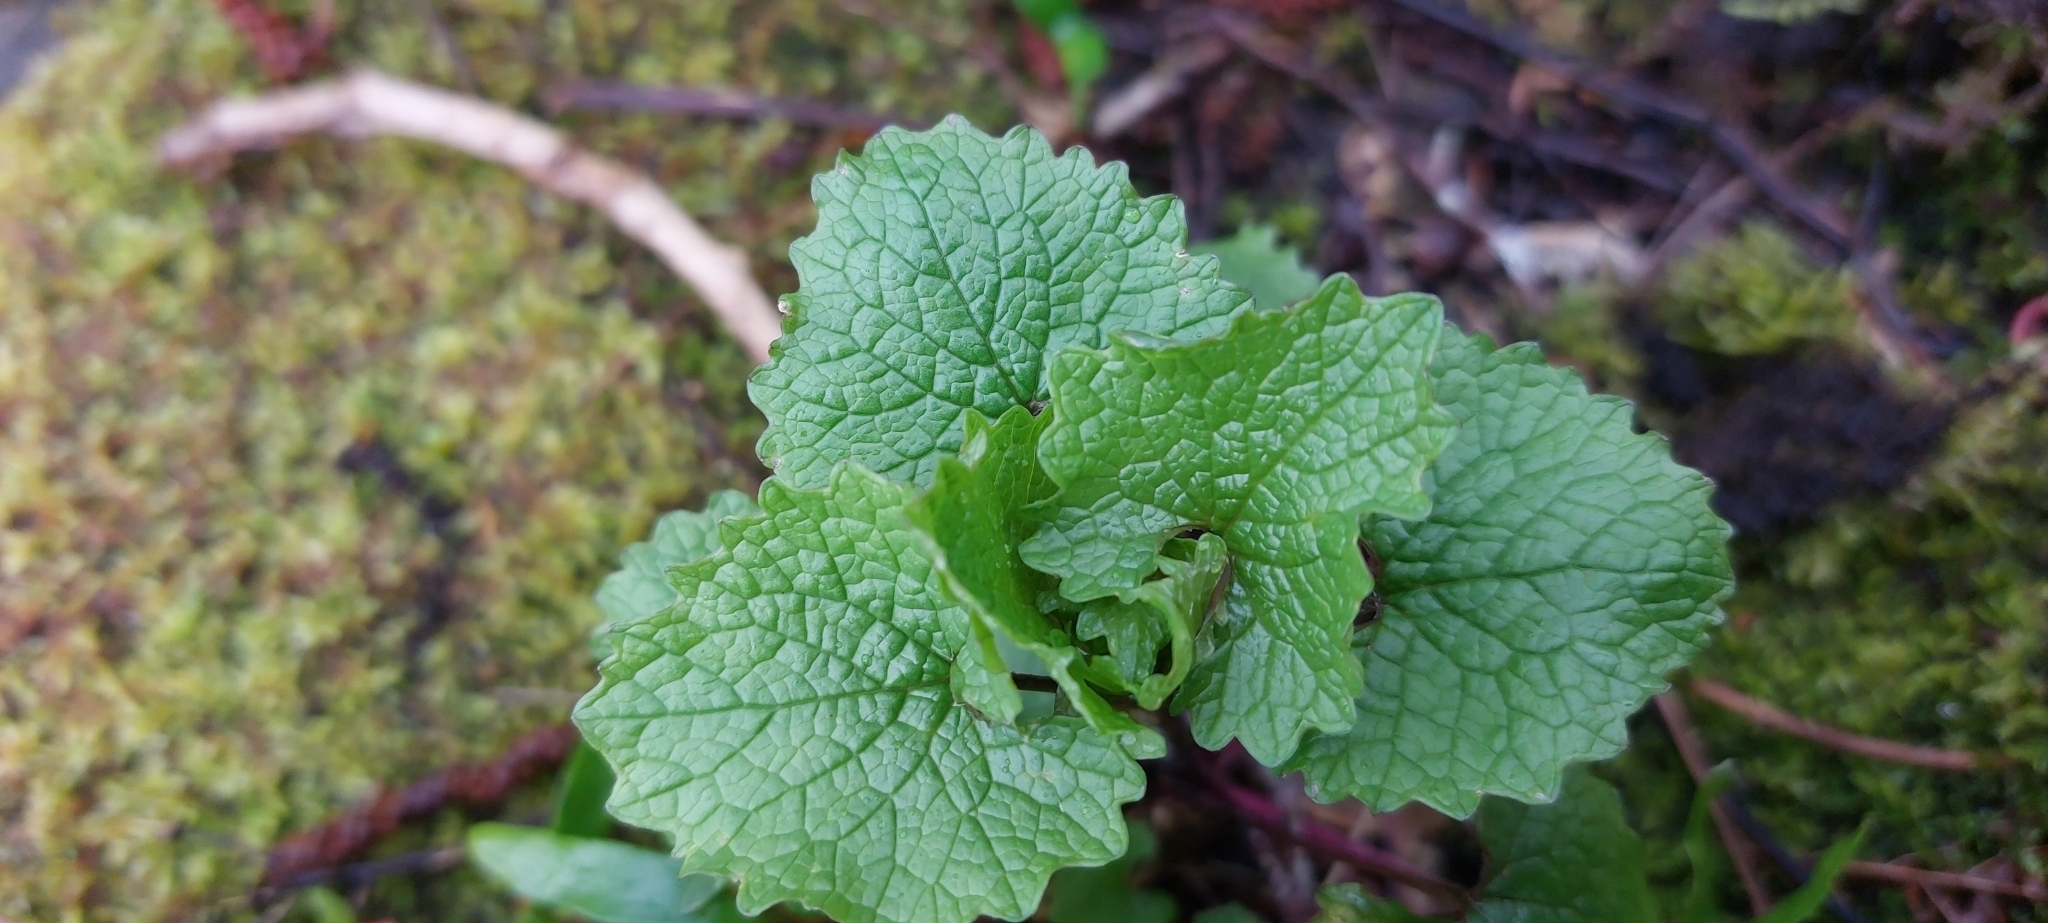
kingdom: Plantae
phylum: Tracheophyta
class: Magnoliopsida
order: Brassicales
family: Brassicaceae
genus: Alliaria
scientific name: Alliaria petiolata
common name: Garlic mustard
